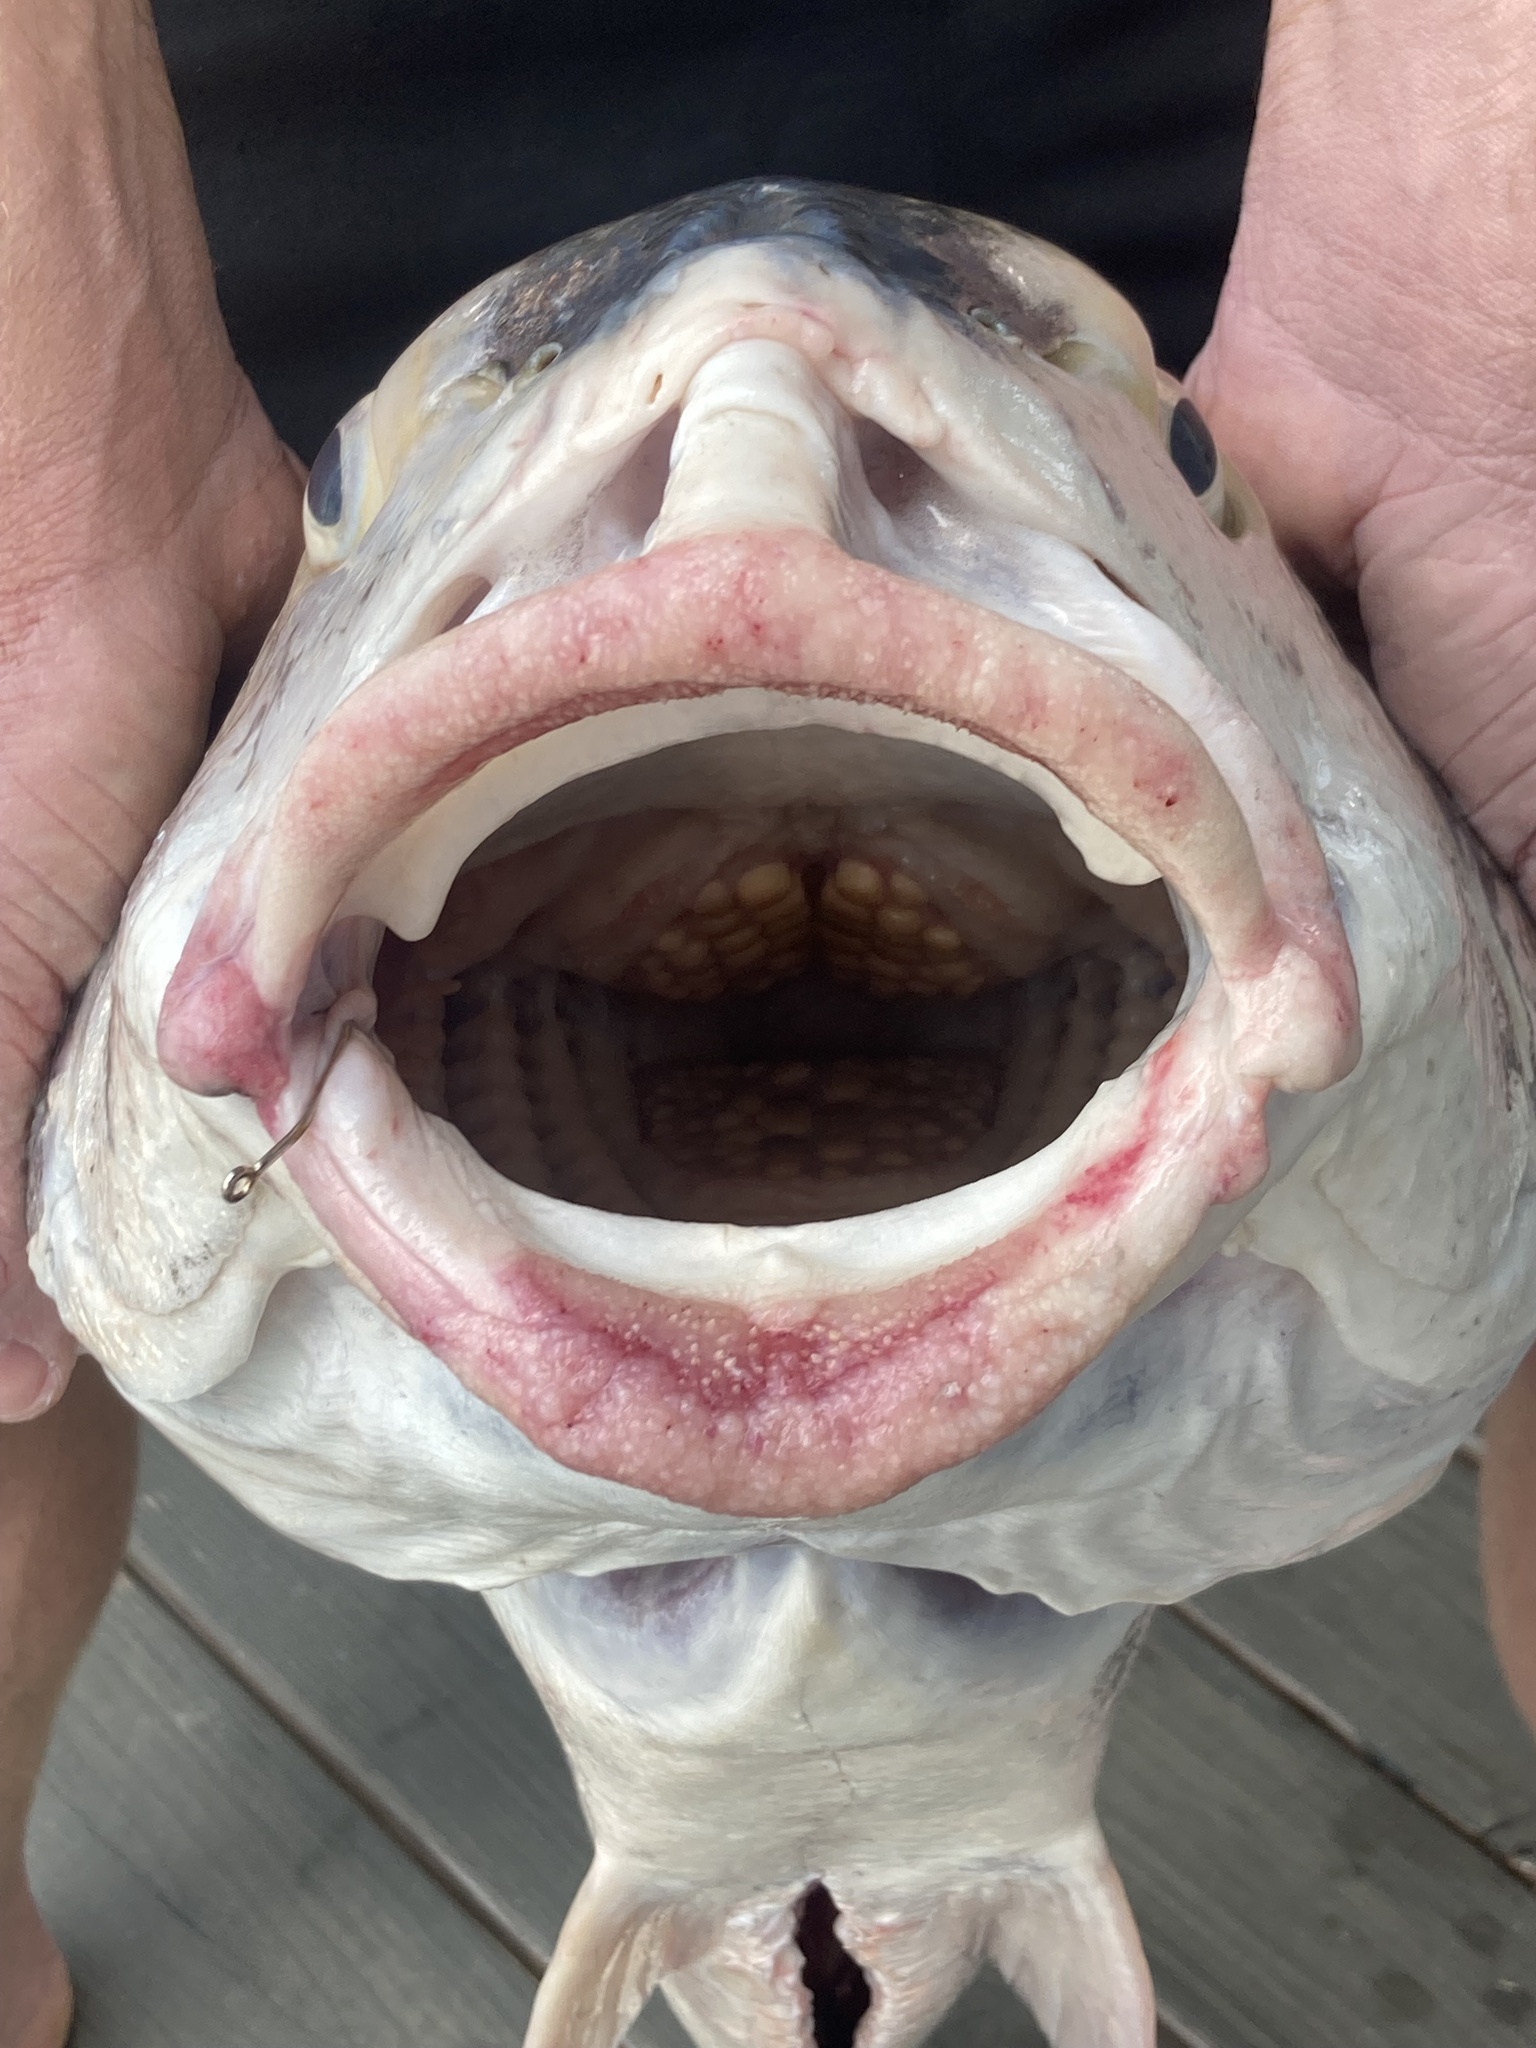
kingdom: Animalia
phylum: Chordata
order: Perciformes
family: Sciaenidae
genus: Pogonias
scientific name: Pogonias cromis
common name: Black drum
